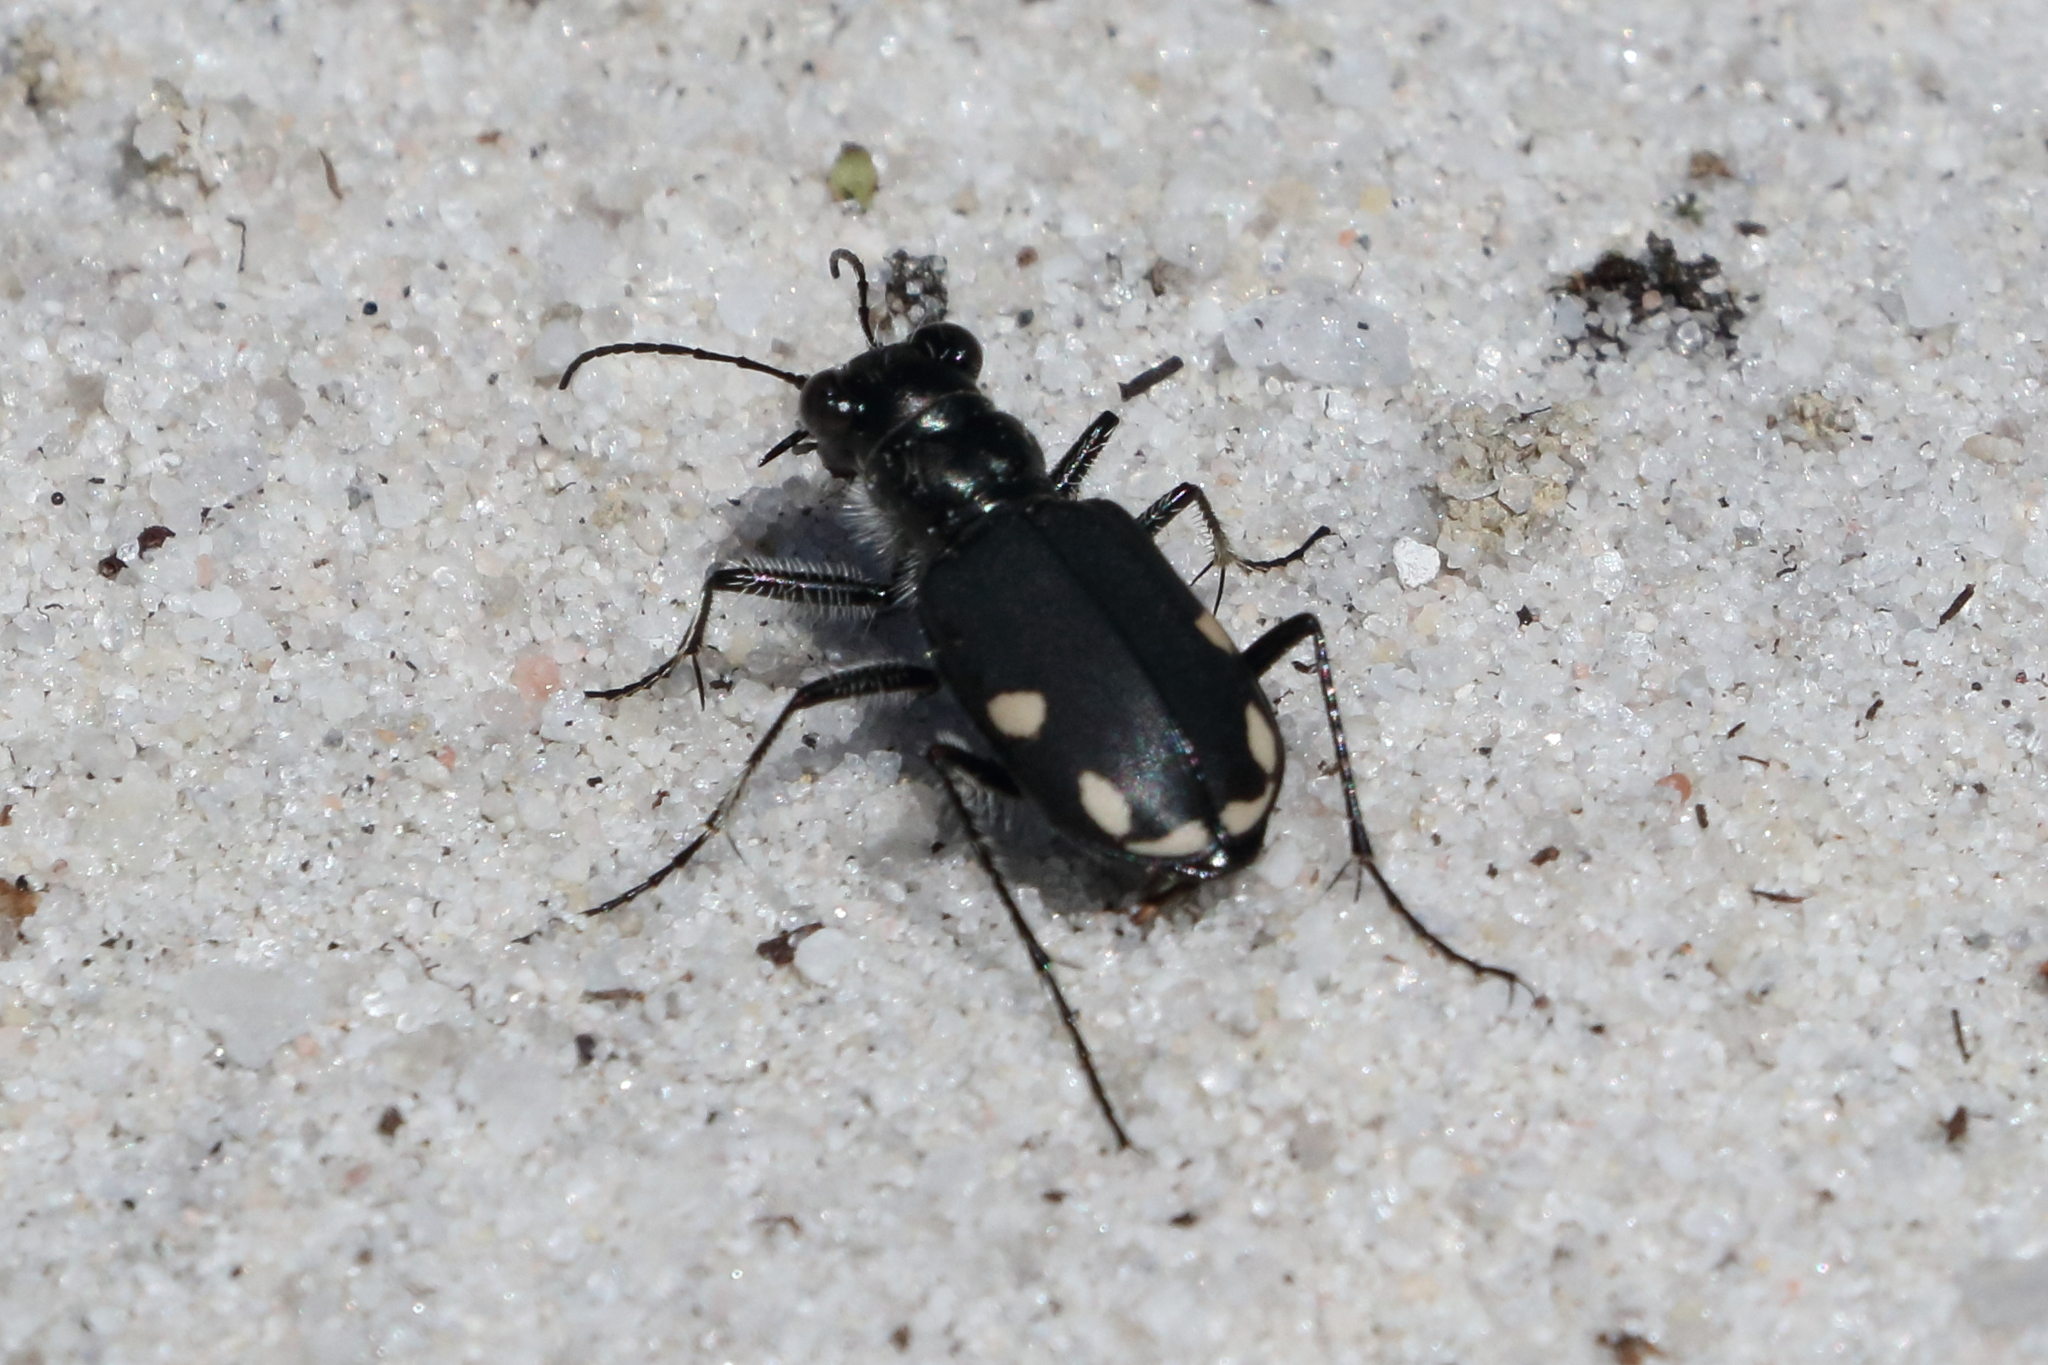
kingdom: Animalia
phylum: Arthropoda
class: Insecta
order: Coleoptera
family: Carabidae
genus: Cicindela
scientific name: Cicindela scutellaris
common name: Festive tiger beetle
